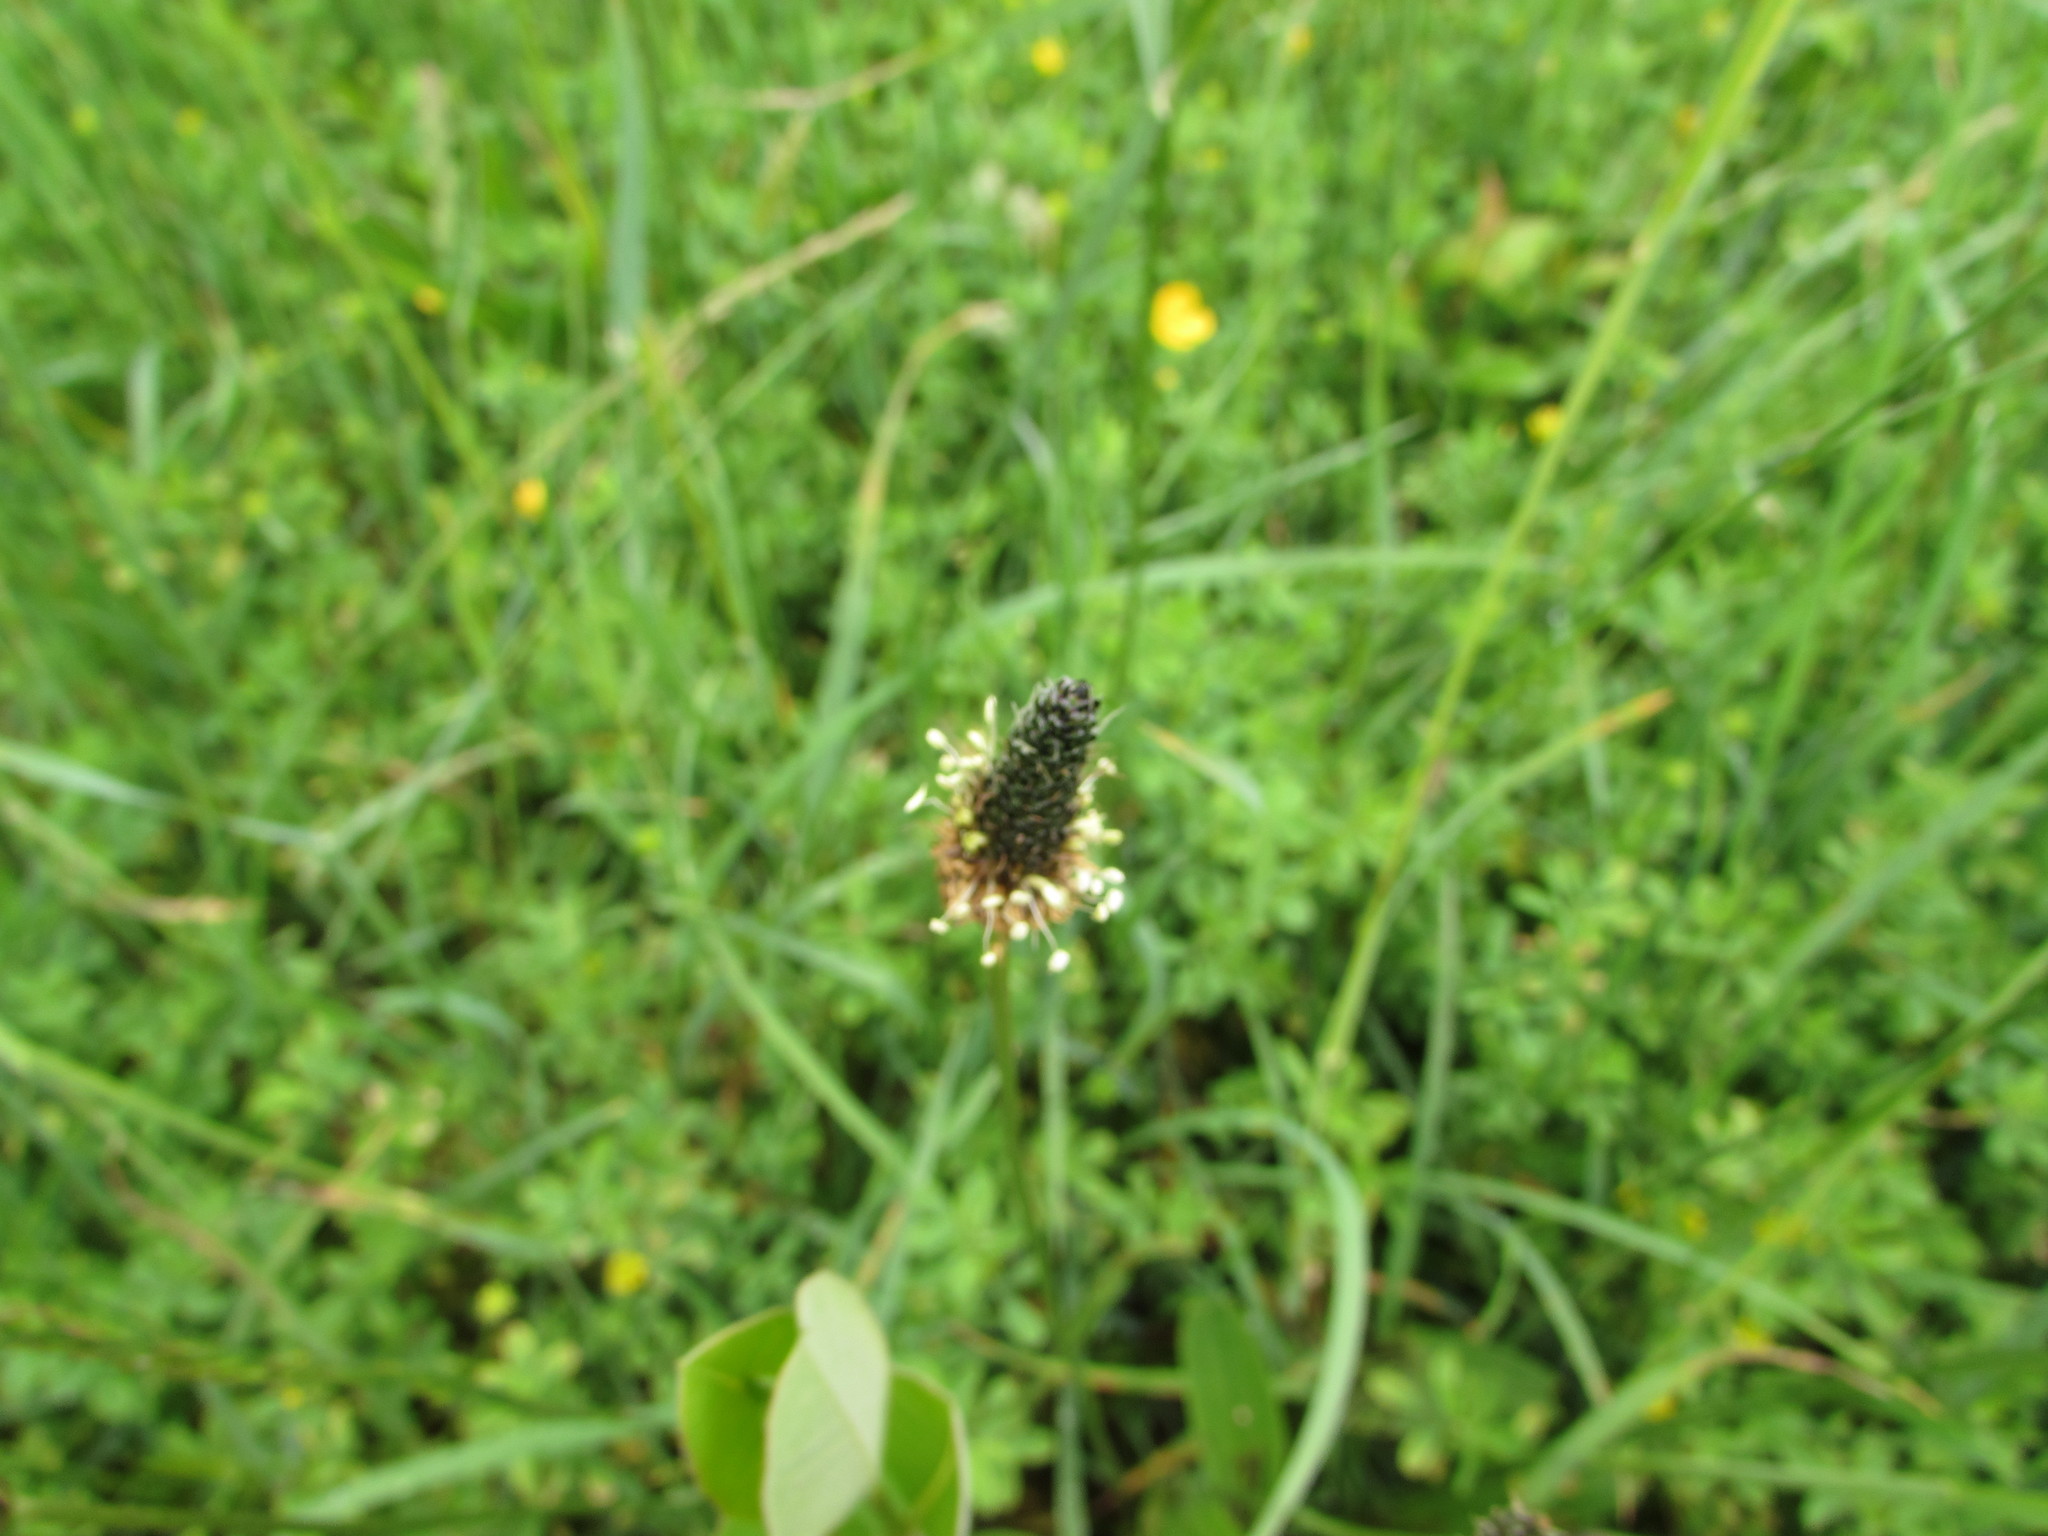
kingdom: Plantae
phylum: Tracheophyta
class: Magnoliopsida
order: Lamiales
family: Plantaginaceae
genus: Plantago
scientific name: Plantago lanceolata
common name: Ribwort plantain
